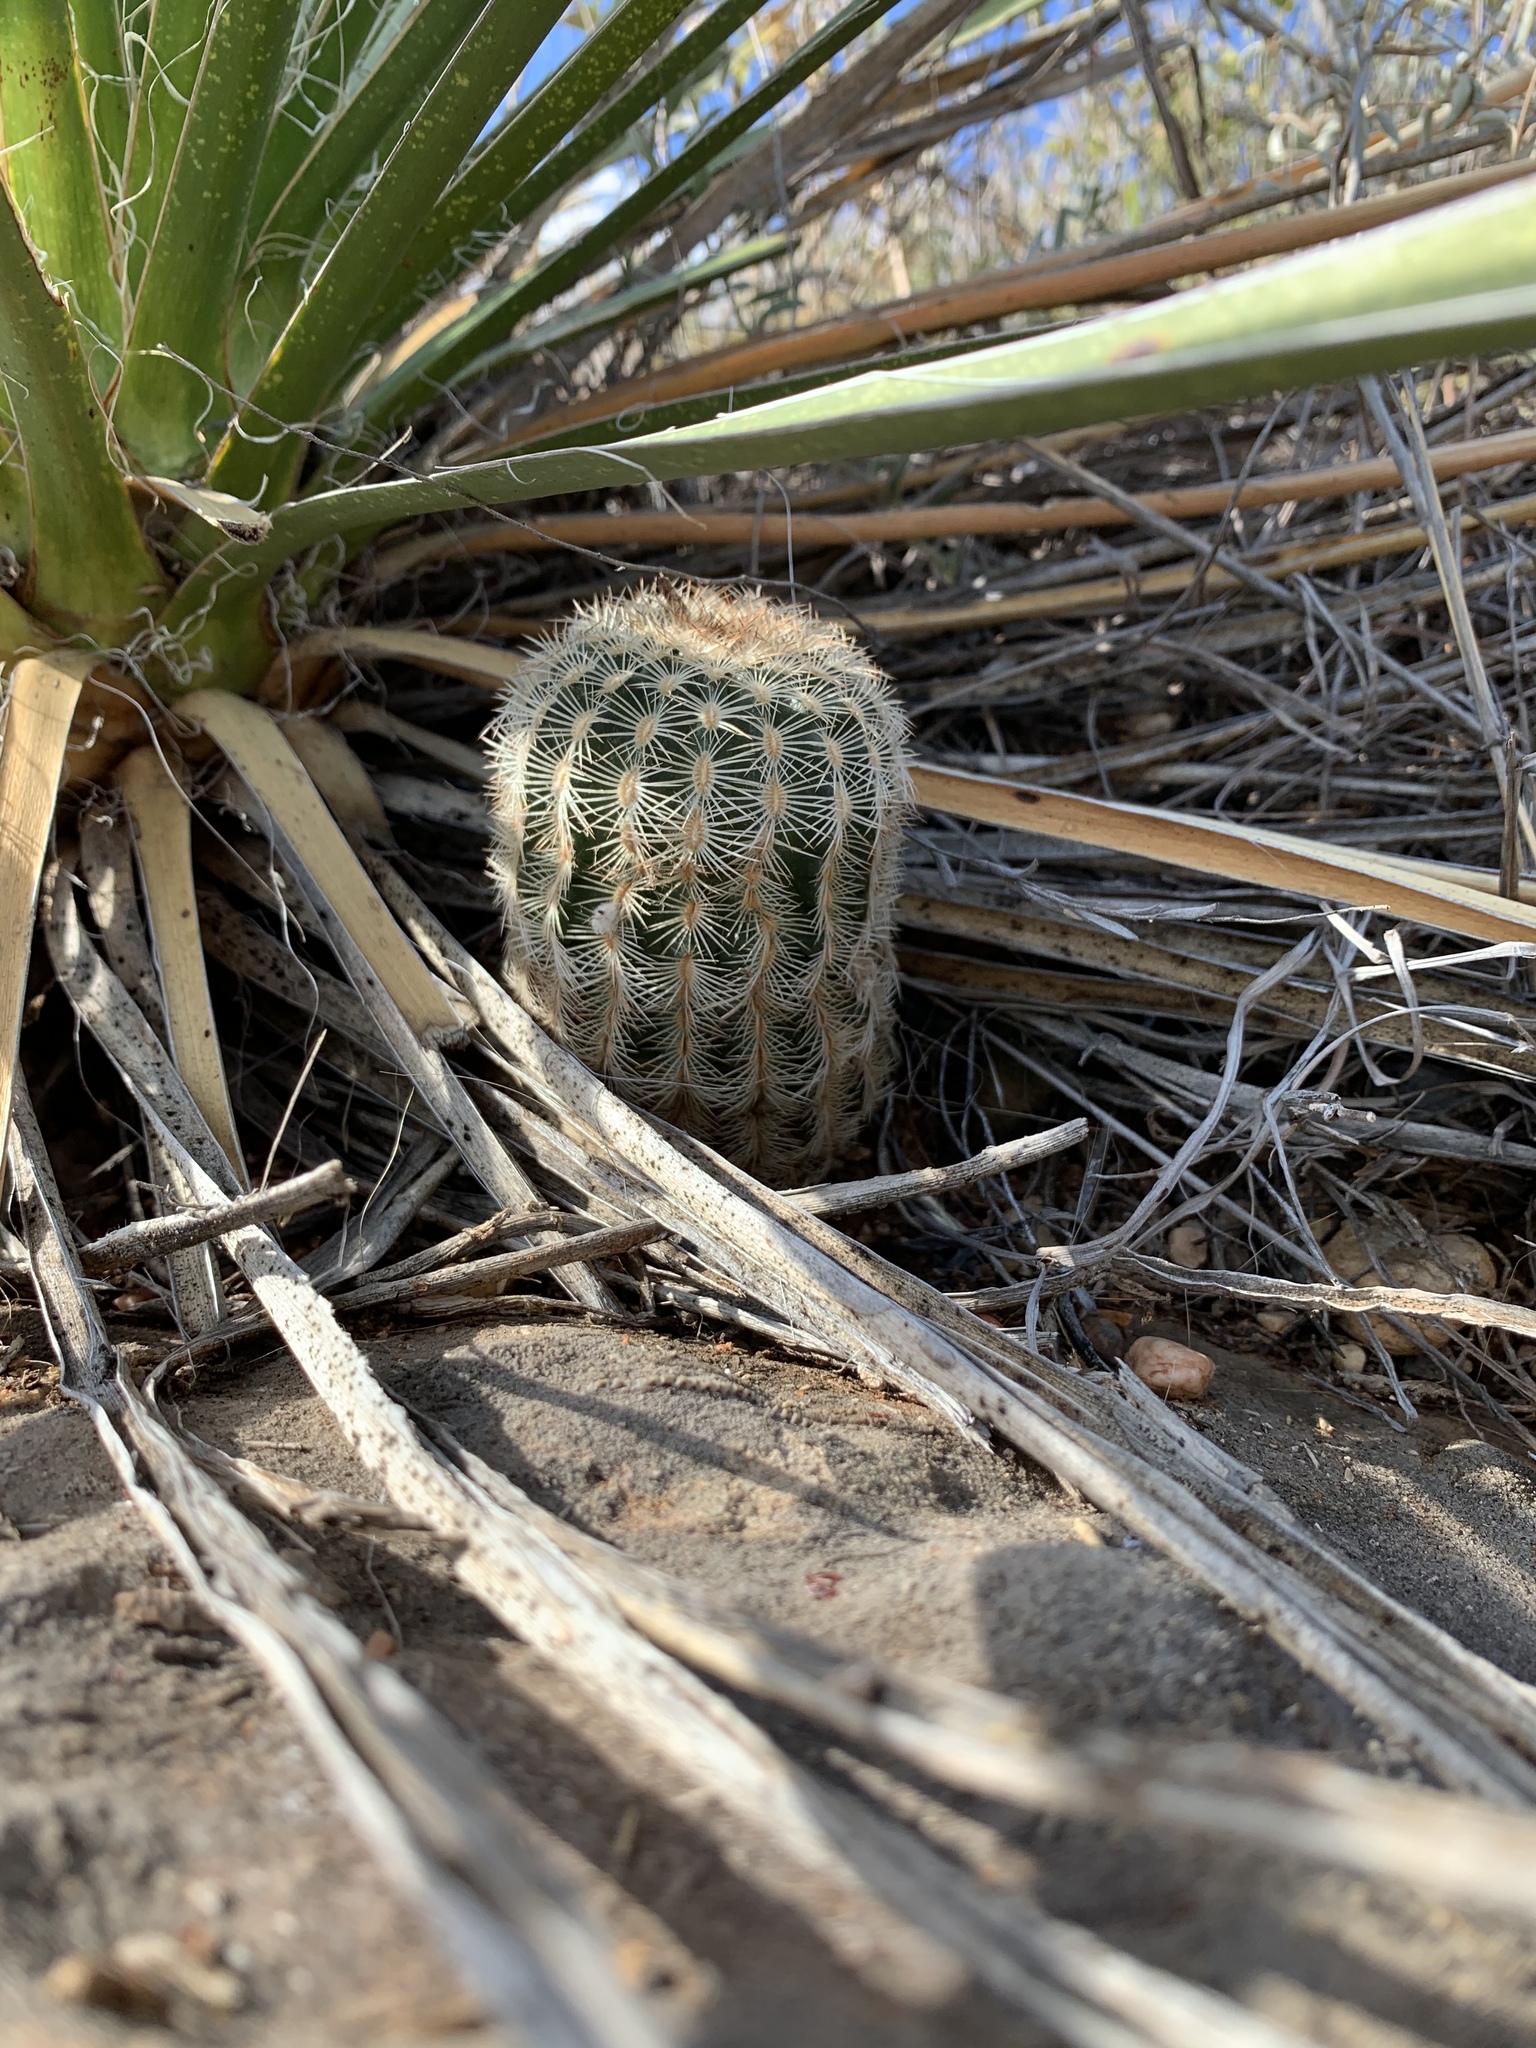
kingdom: Plantae
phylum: Tracheophyta
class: Magnoliopsida
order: Caryophyllales
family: Cactaceae
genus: Echinocereus
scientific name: Echinocereus reichenbachii
